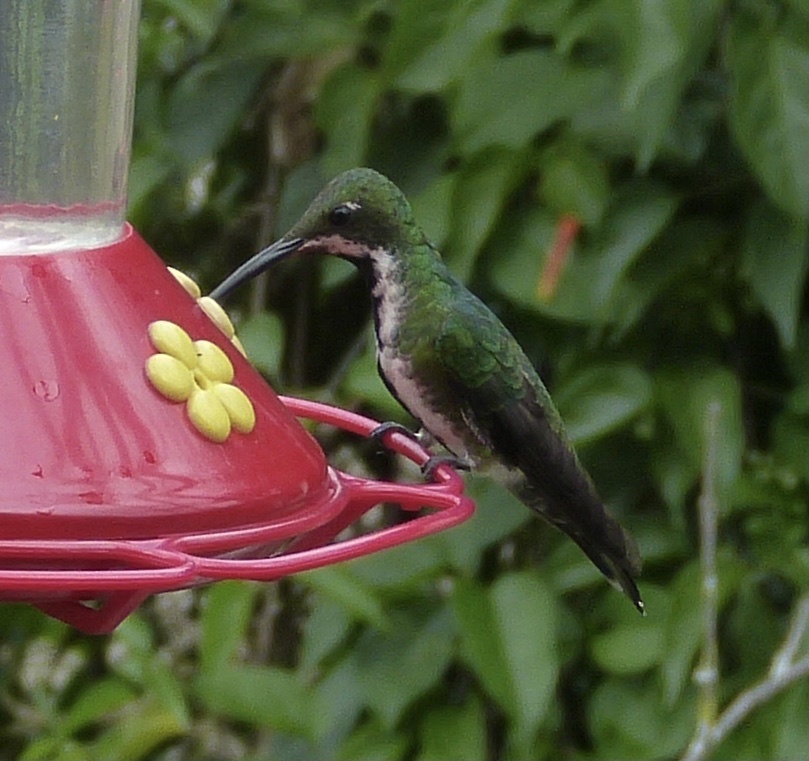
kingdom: Animalia
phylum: Chordata
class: Aves
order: Apodiformes
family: Trochilidae
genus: Anthracothorax
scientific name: Anthracothorax nigricollis
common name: Black-throated mango
